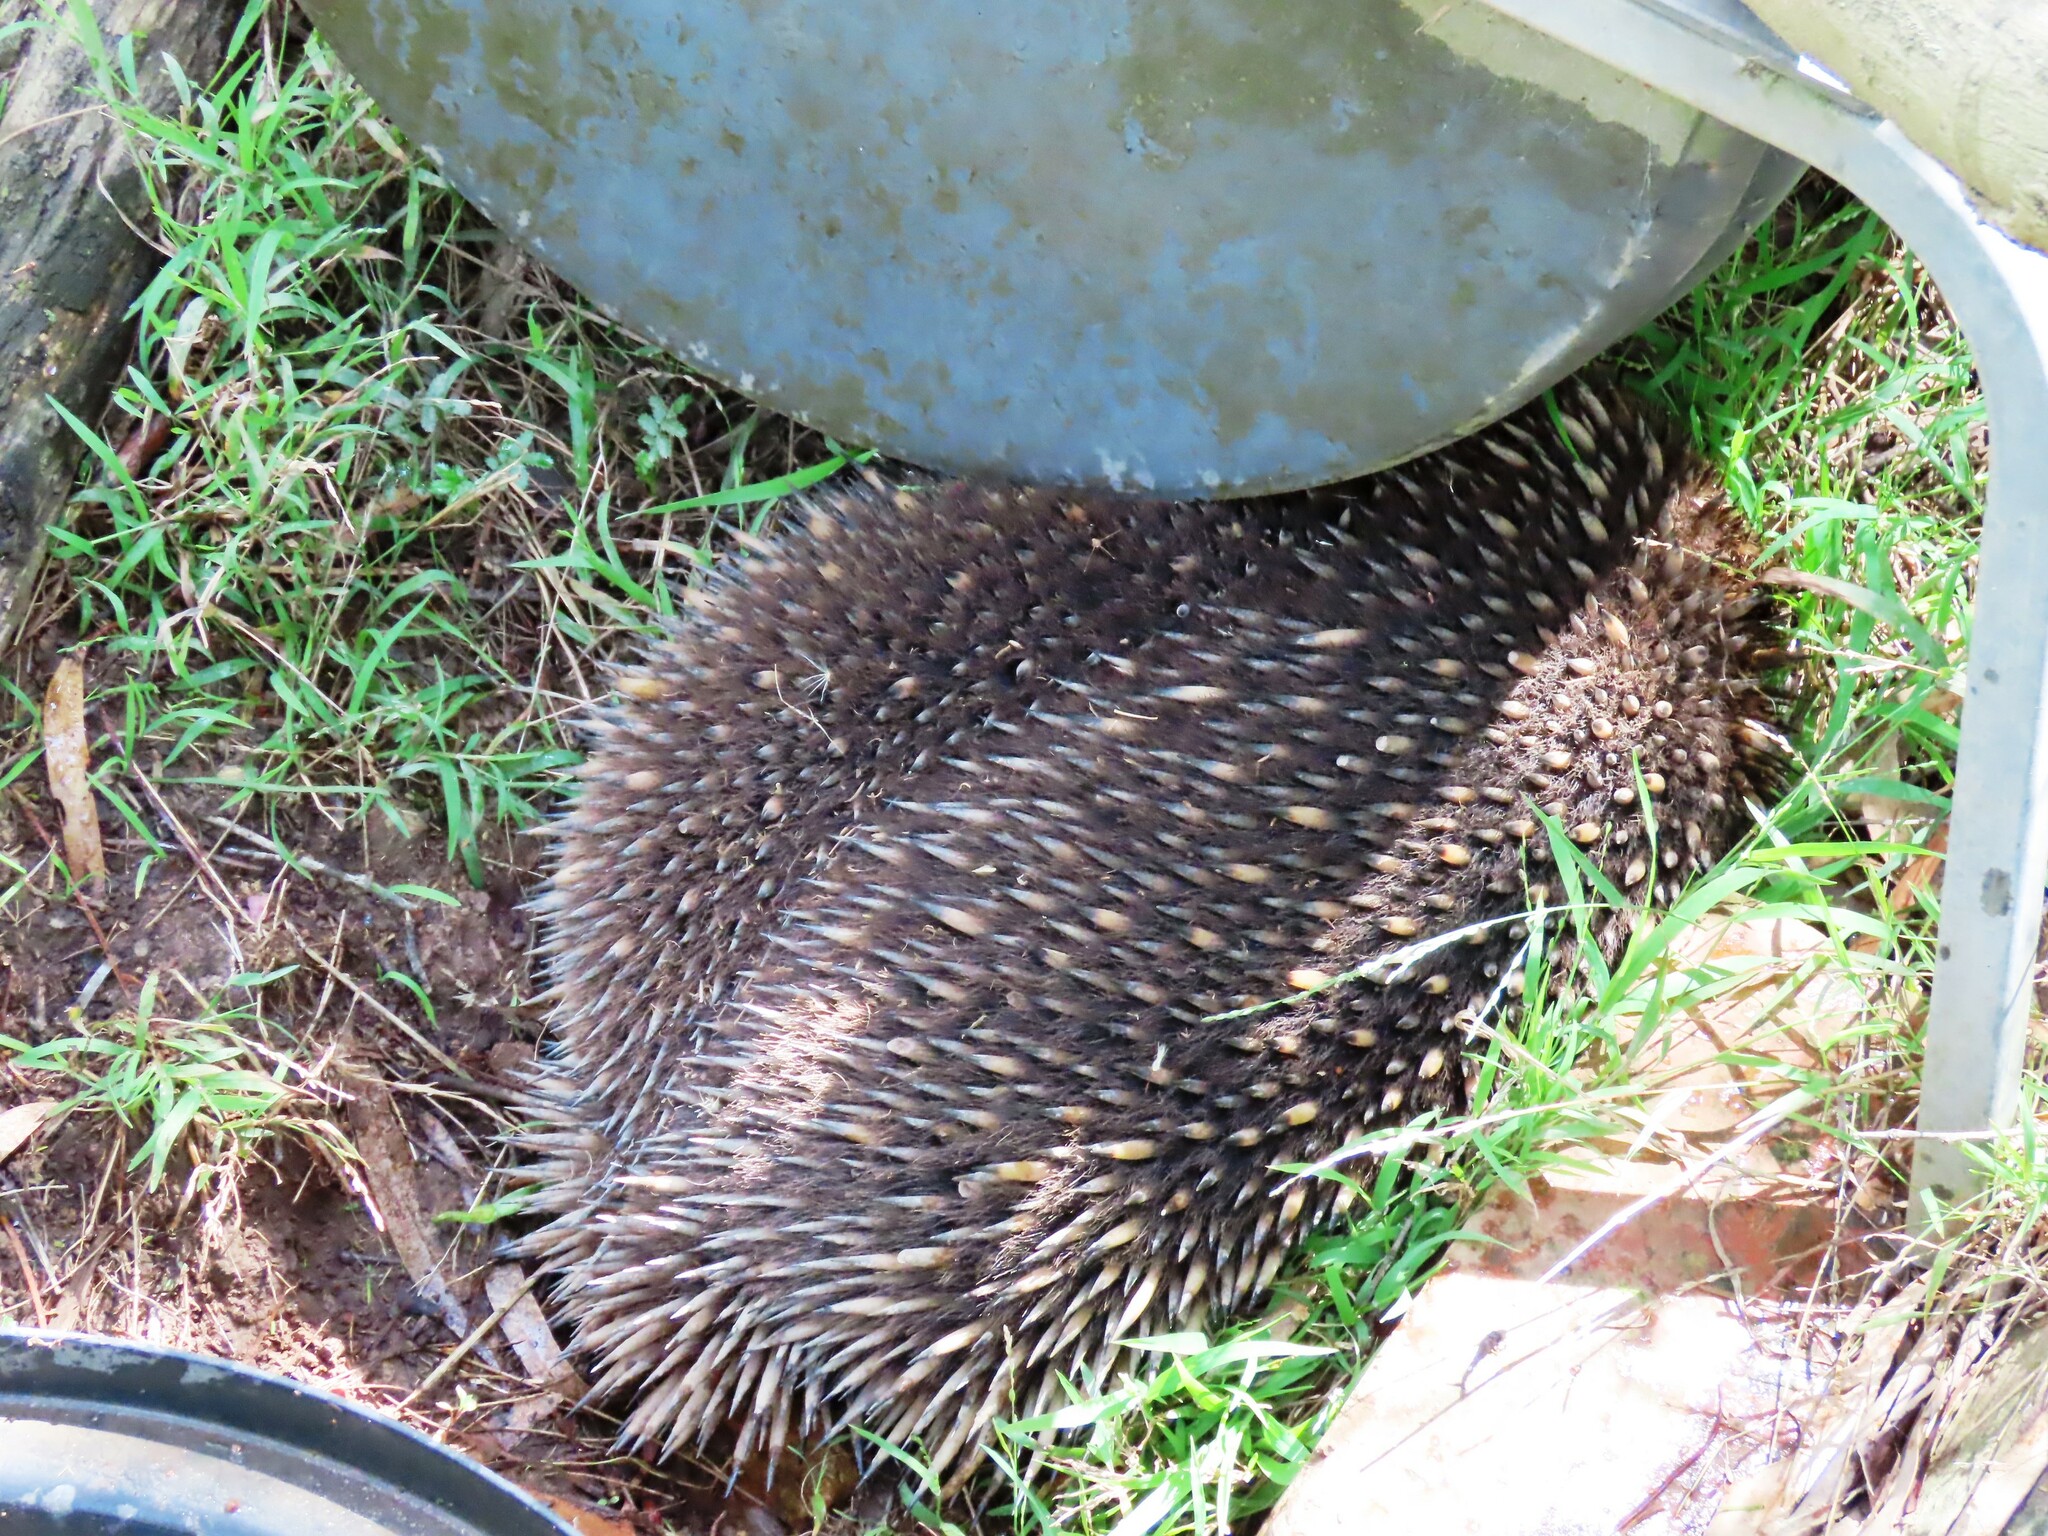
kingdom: Animalia
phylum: Chordata
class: Mammalia
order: Monotremata
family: Tachyglossidae
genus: Tachyglossus
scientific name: Tachyglossus aculeatus
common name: Short-beaked echidna
